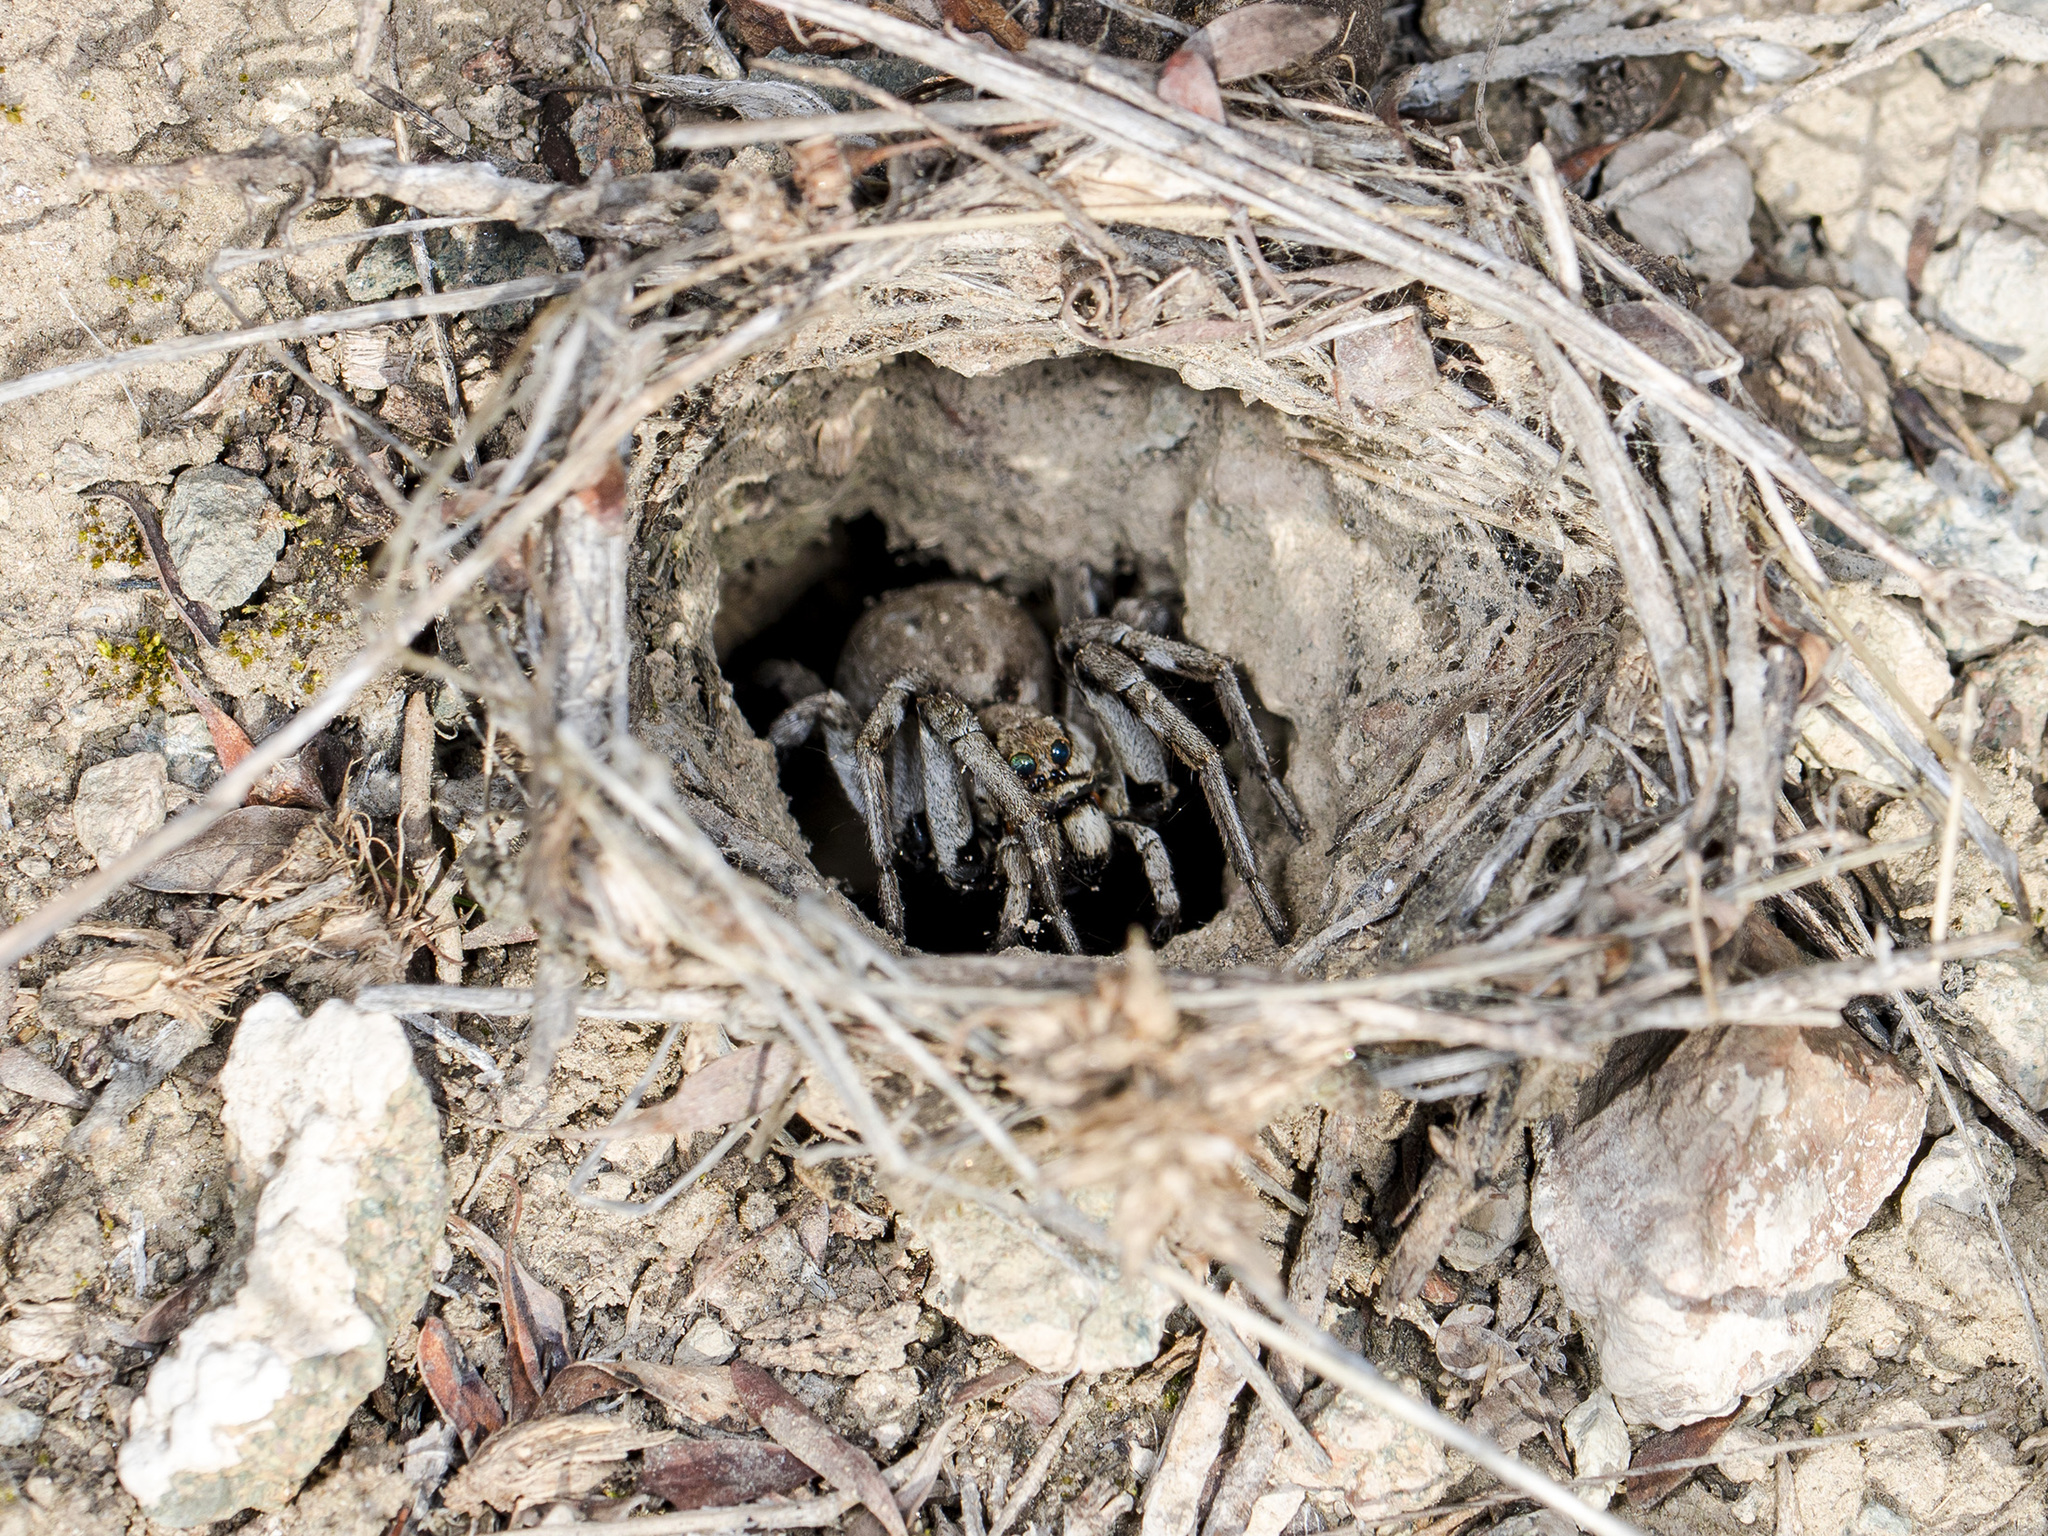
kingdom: Animalia
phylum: Arthropoda
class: Arachnida
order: Araneae
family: Lycosidae
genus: Lycosa
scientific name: Lycosa praegrandis
